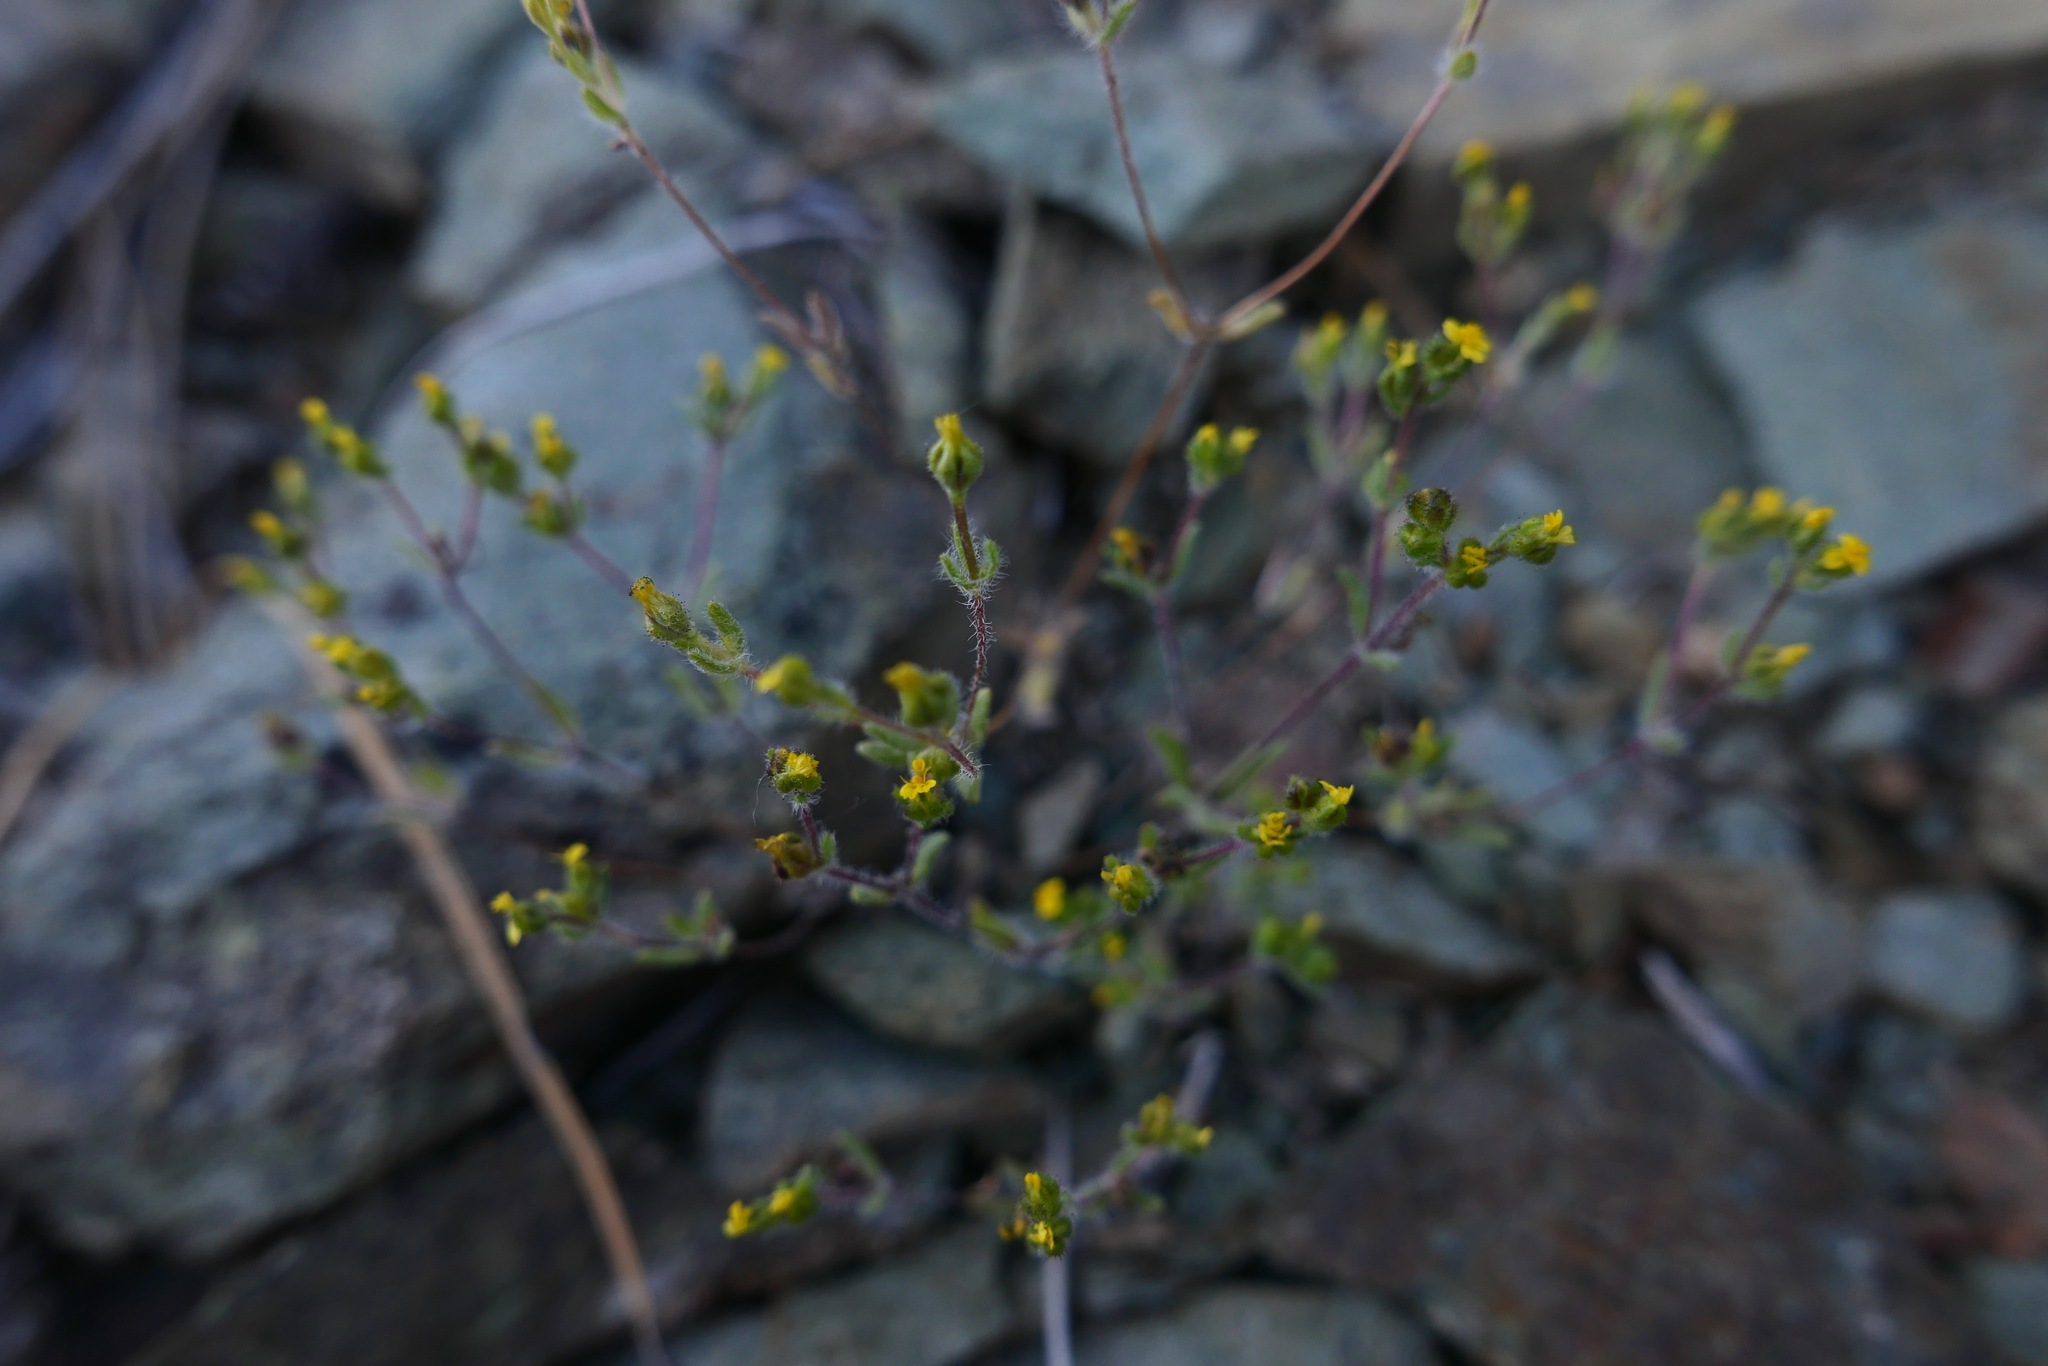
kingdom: Plantae
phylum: Tracheophyta
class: Magnoliopsida
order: Asterales
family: Asteraceae
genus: Hemizonella
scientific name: Hemizonella minima
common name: Opposite-leaved tarweed
